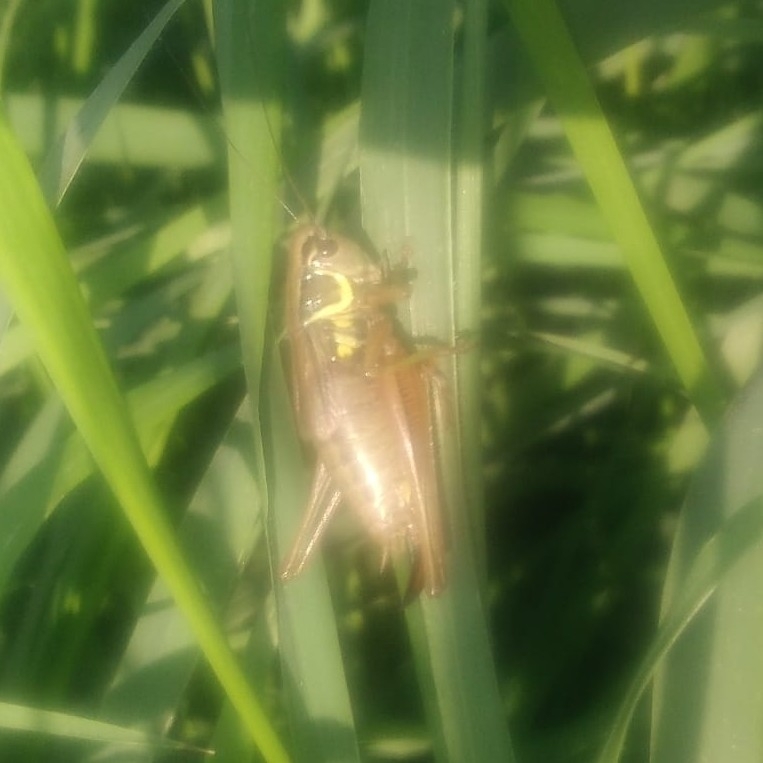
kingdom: Animalia
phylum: Arthropoda
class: Insecta
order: Orthoptera
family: Tettigoniidae
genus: Roeseliana
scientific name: Roeseliana roeselii
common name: Roesel's bush cricket
